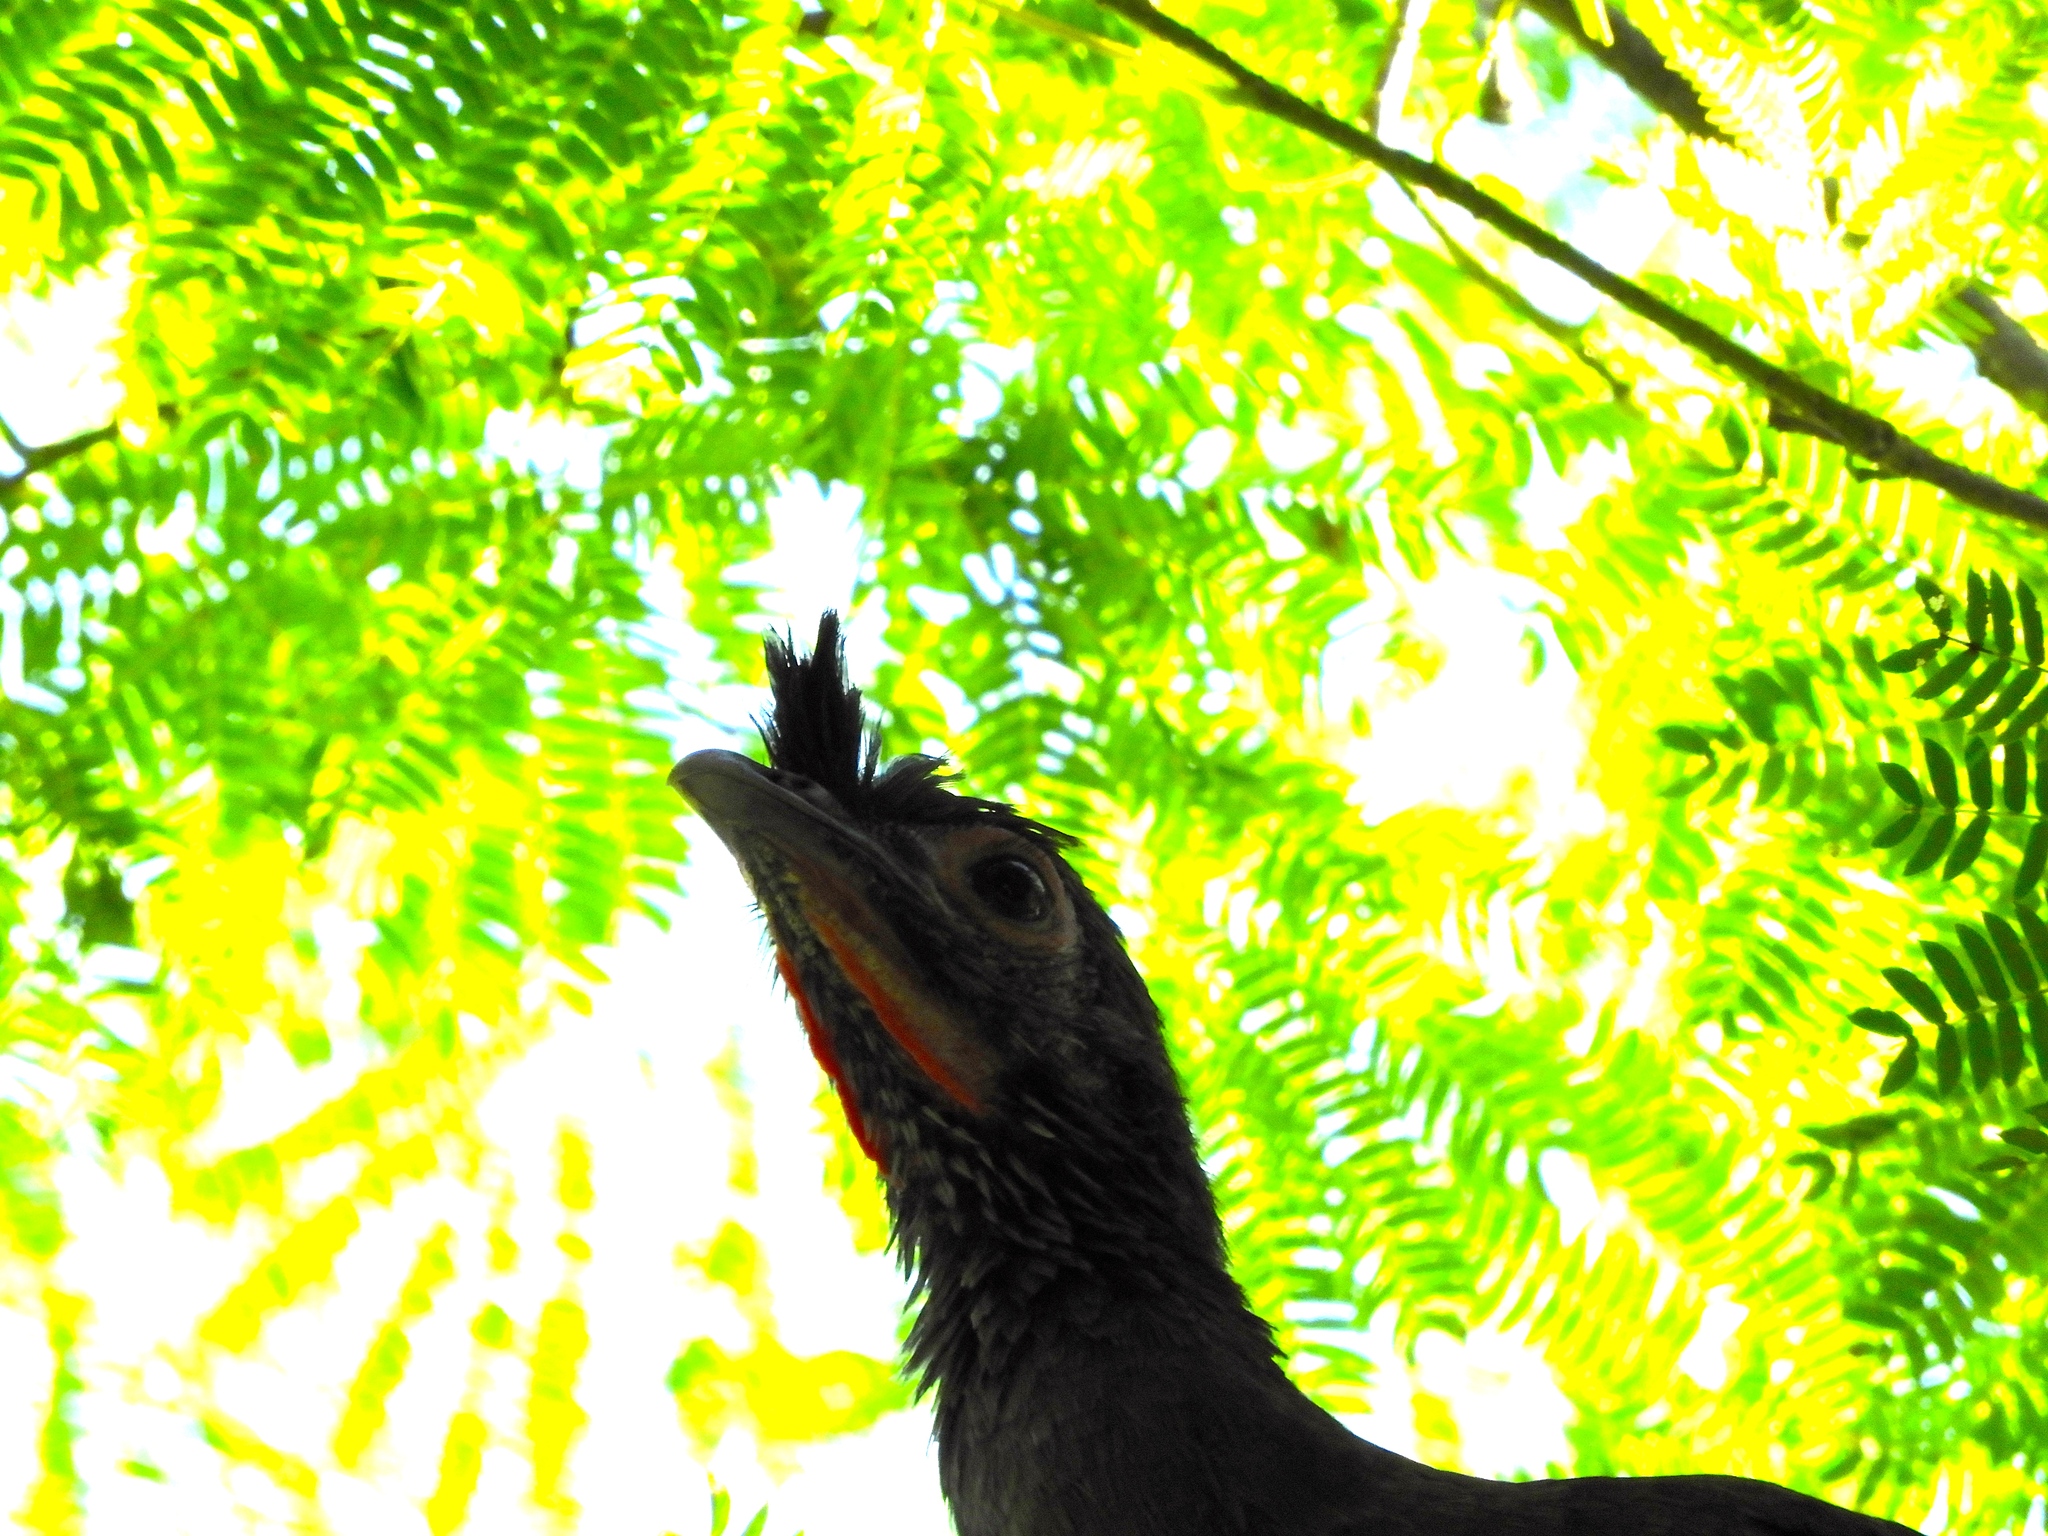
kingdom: Animalia
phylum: Chordata
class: Aves
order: Galliformes
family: Cracidae
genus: Ortalis
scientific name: Ortalis wagleri
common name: Rufous-bellied chachalaca
